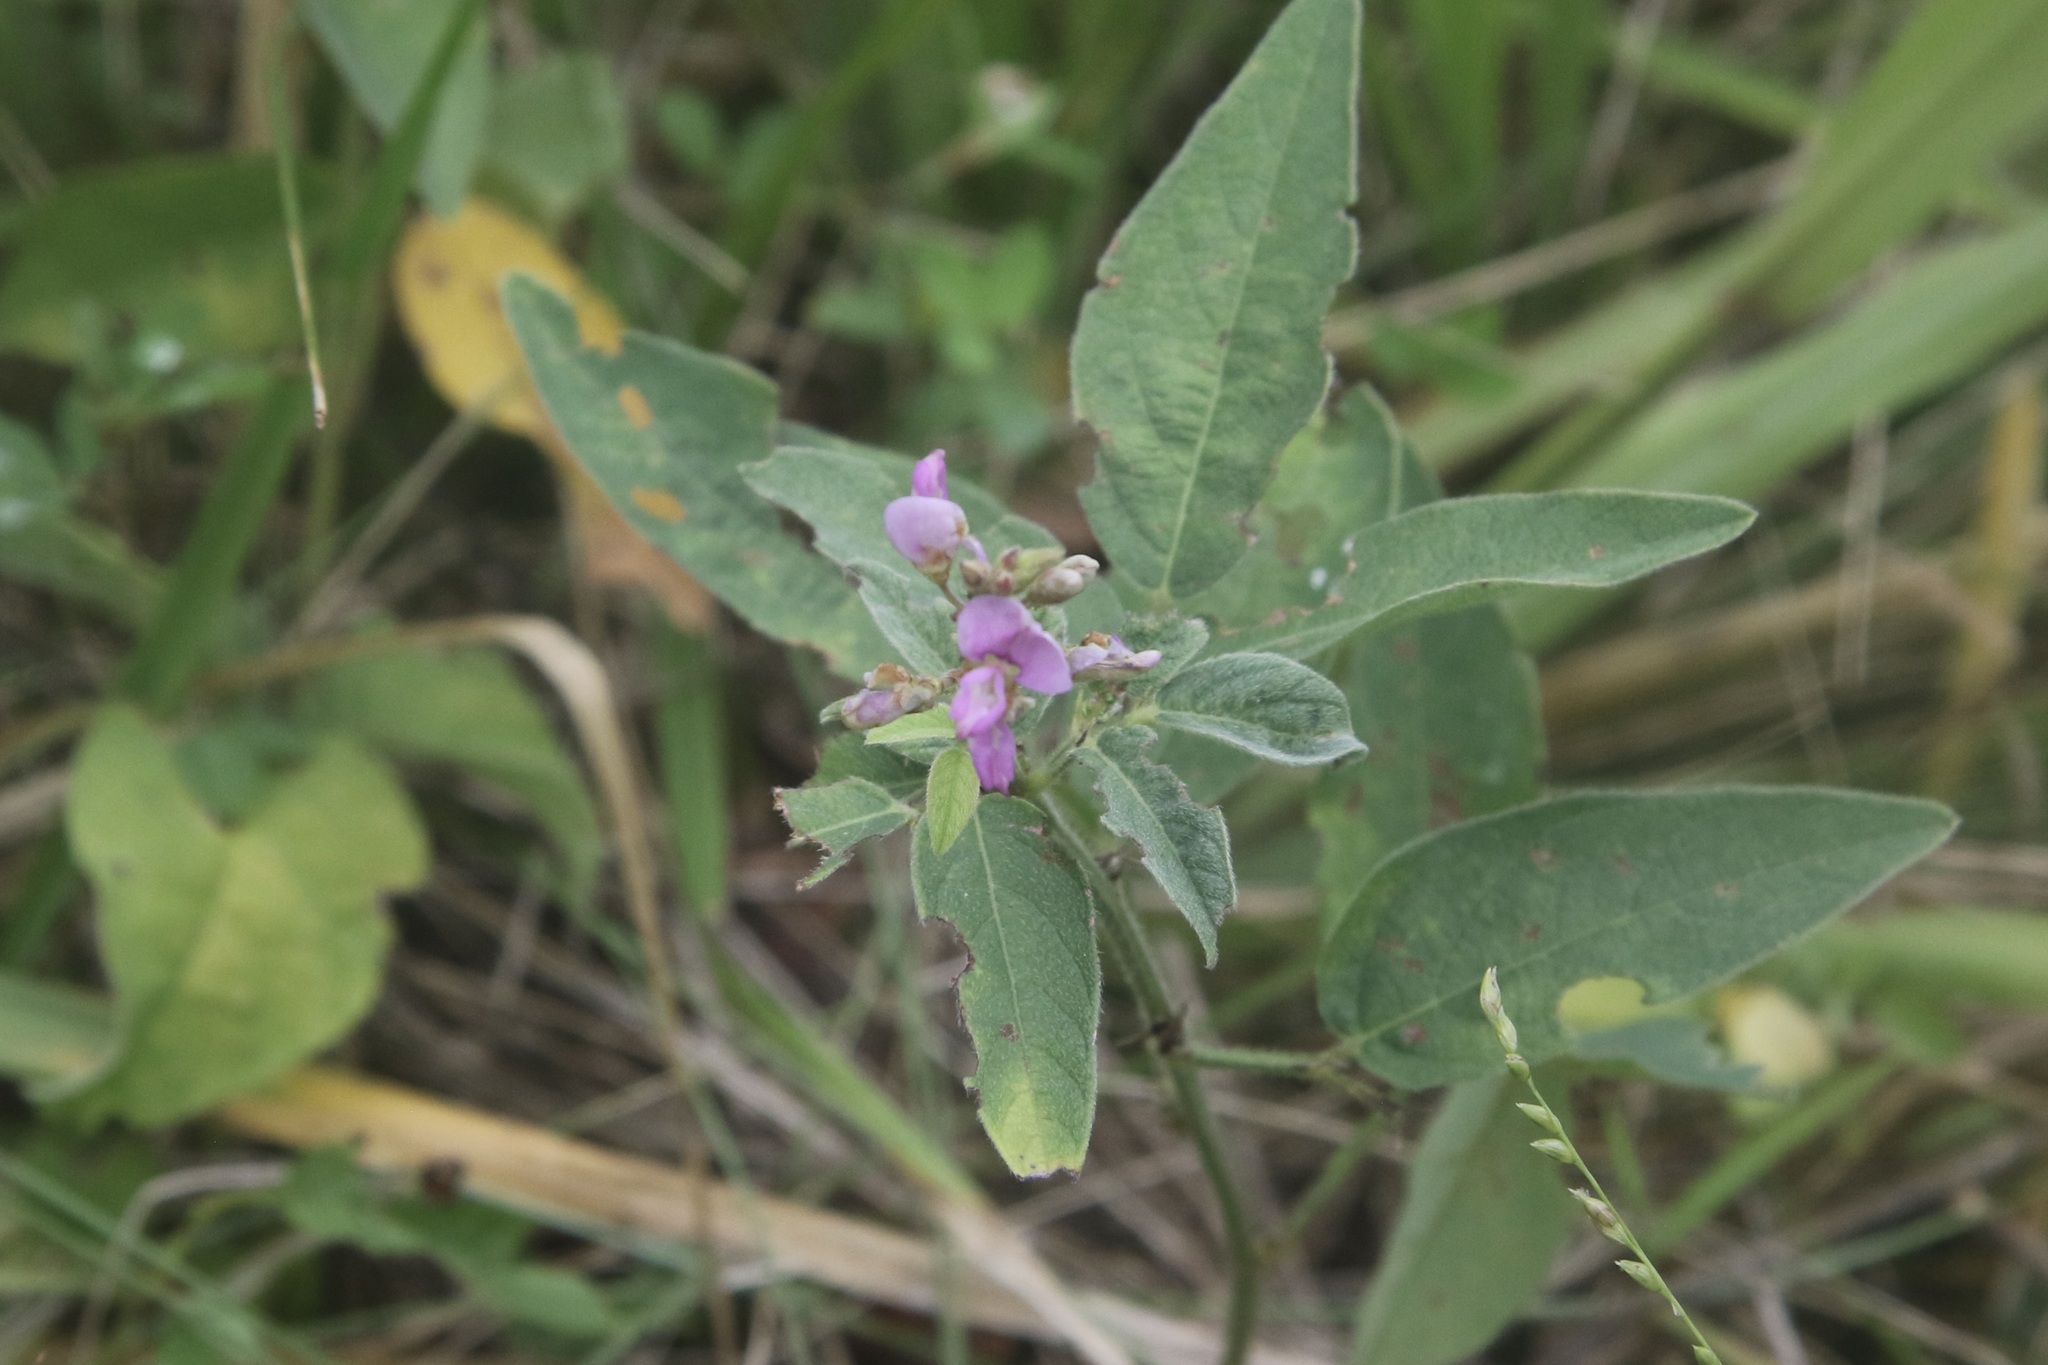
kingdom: Plantae
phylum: Tracheophyta
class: Magnoliopsida
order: Fabales
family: Fabaceae
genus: Desmodium
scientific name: Desmodium glabellum
